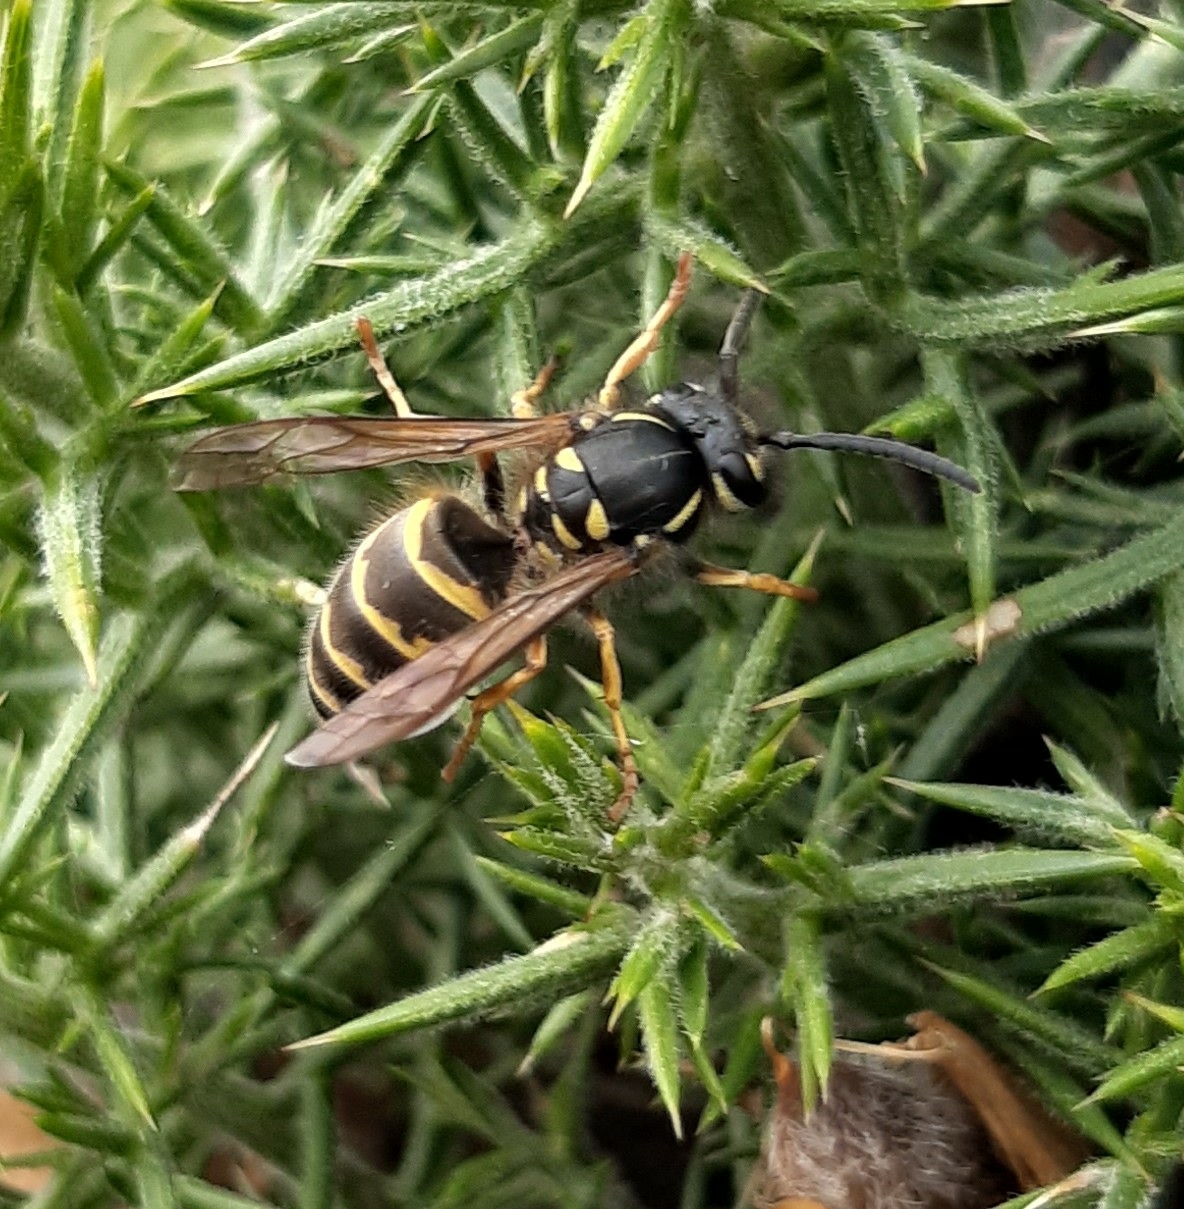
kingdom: Animalia
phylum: Arthropoda
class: Insecta
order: Hymenoptera
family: Vespidae
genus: Vespula
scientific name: Vespula vulgaris
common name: Common wasp
